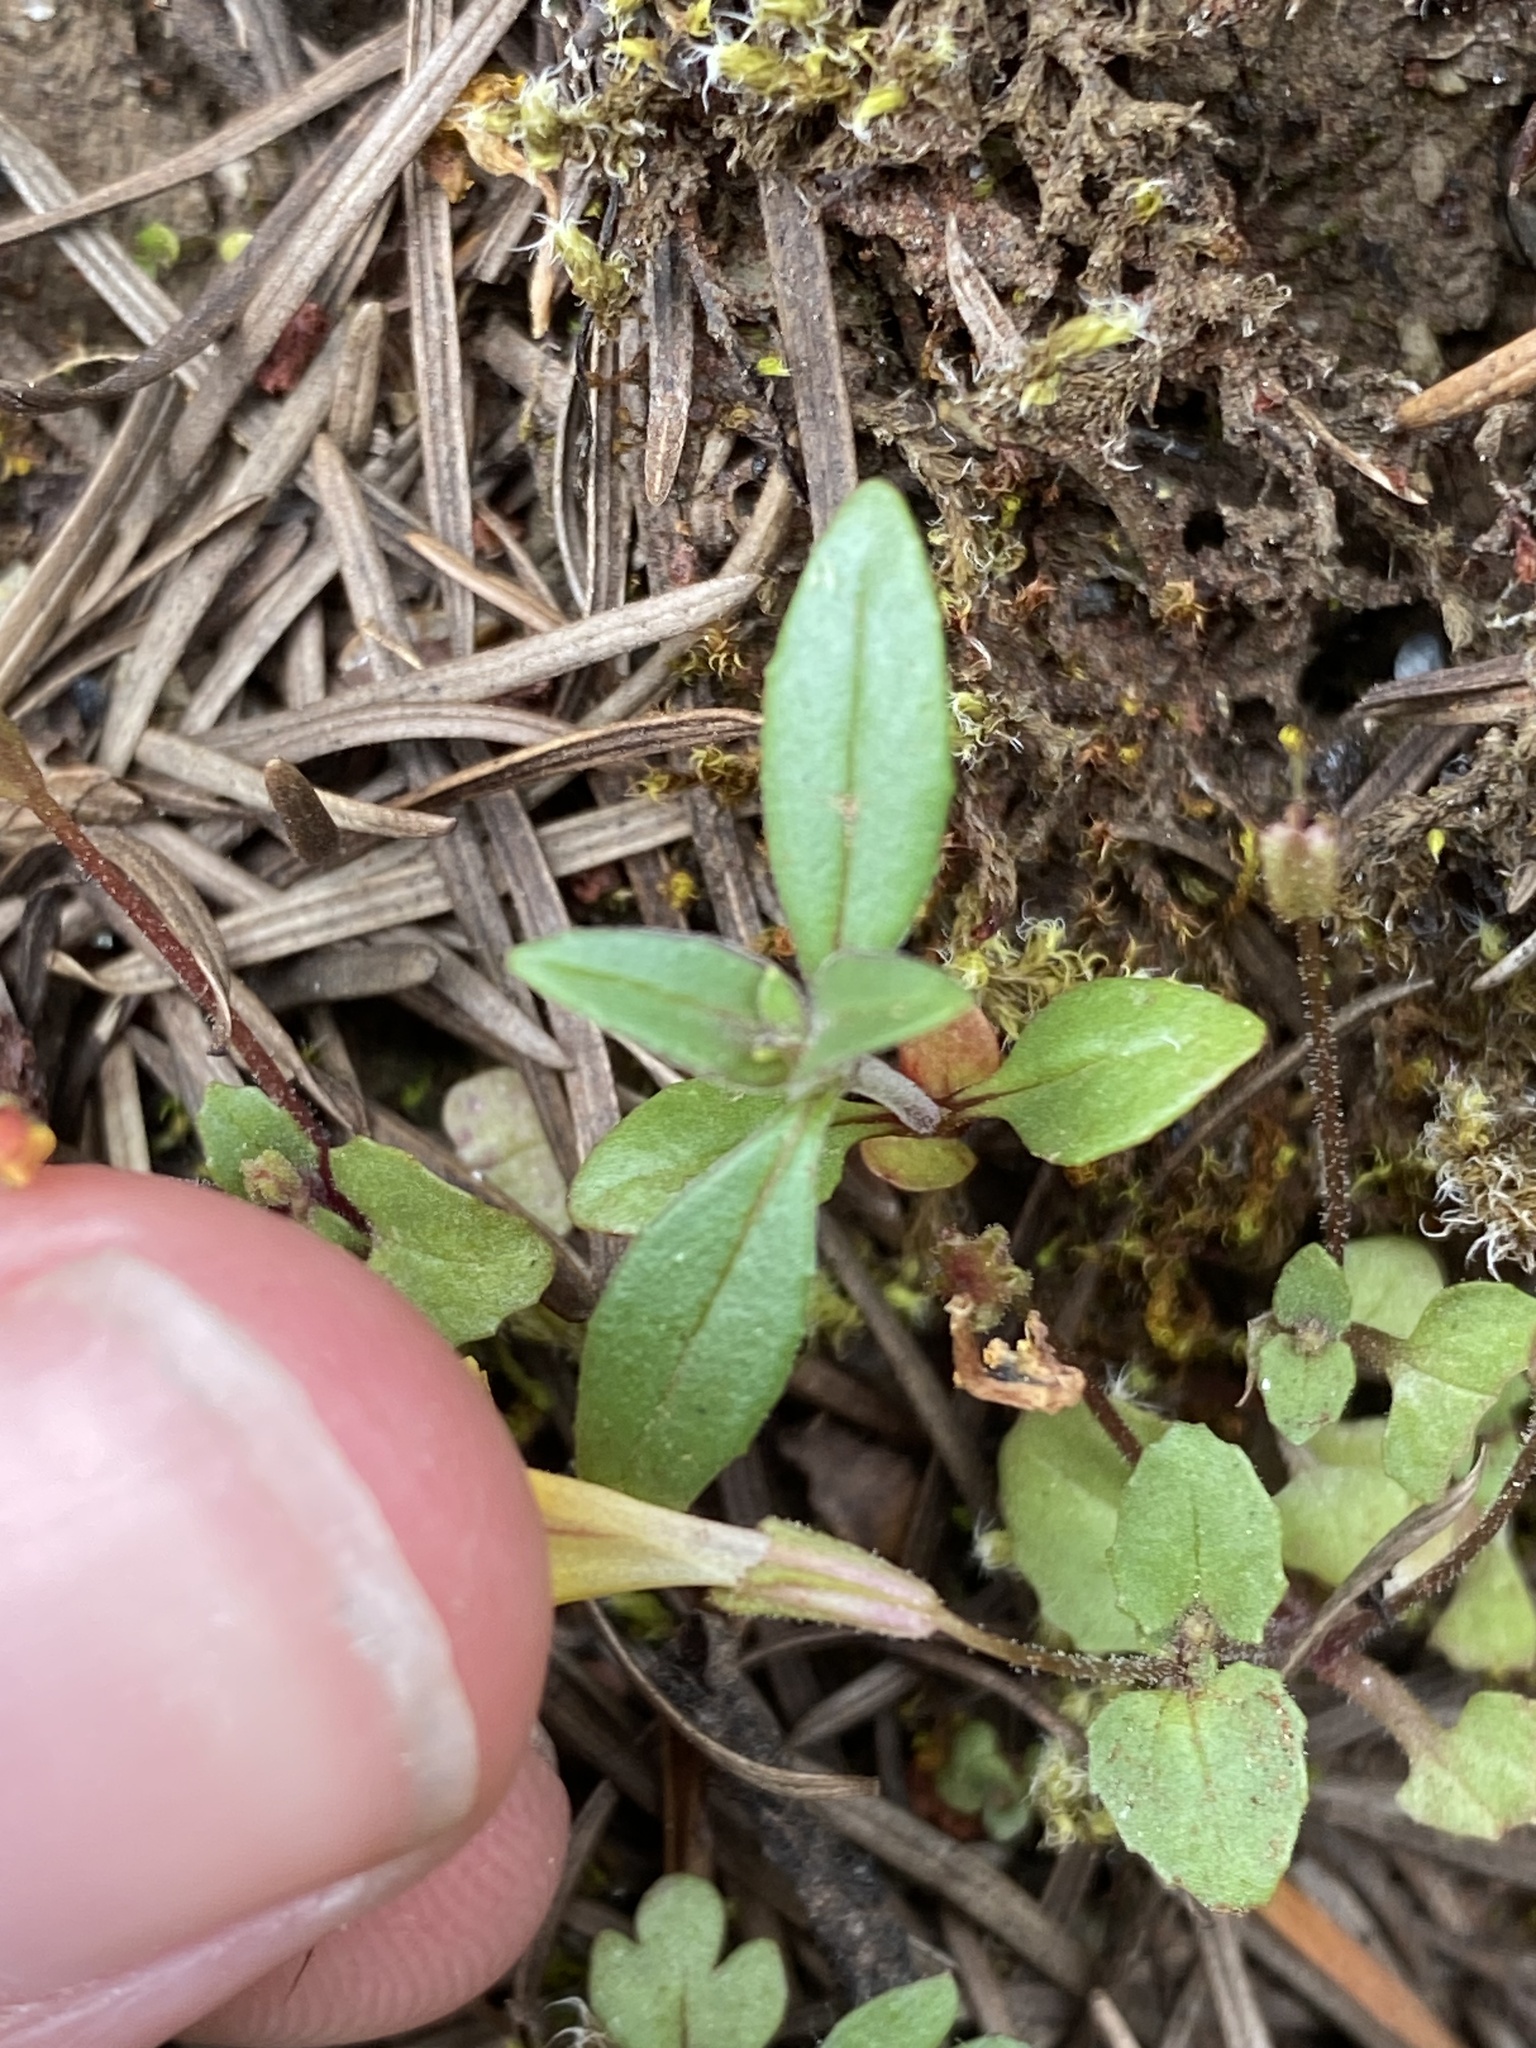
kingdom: Plantae
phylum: Tracheophyta
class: Magnoliopsida
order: Lamiales
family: Phrymaceae
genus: Erythranthe
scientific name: Erythranthe alsinoides
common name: Chickweed monkeyflower
